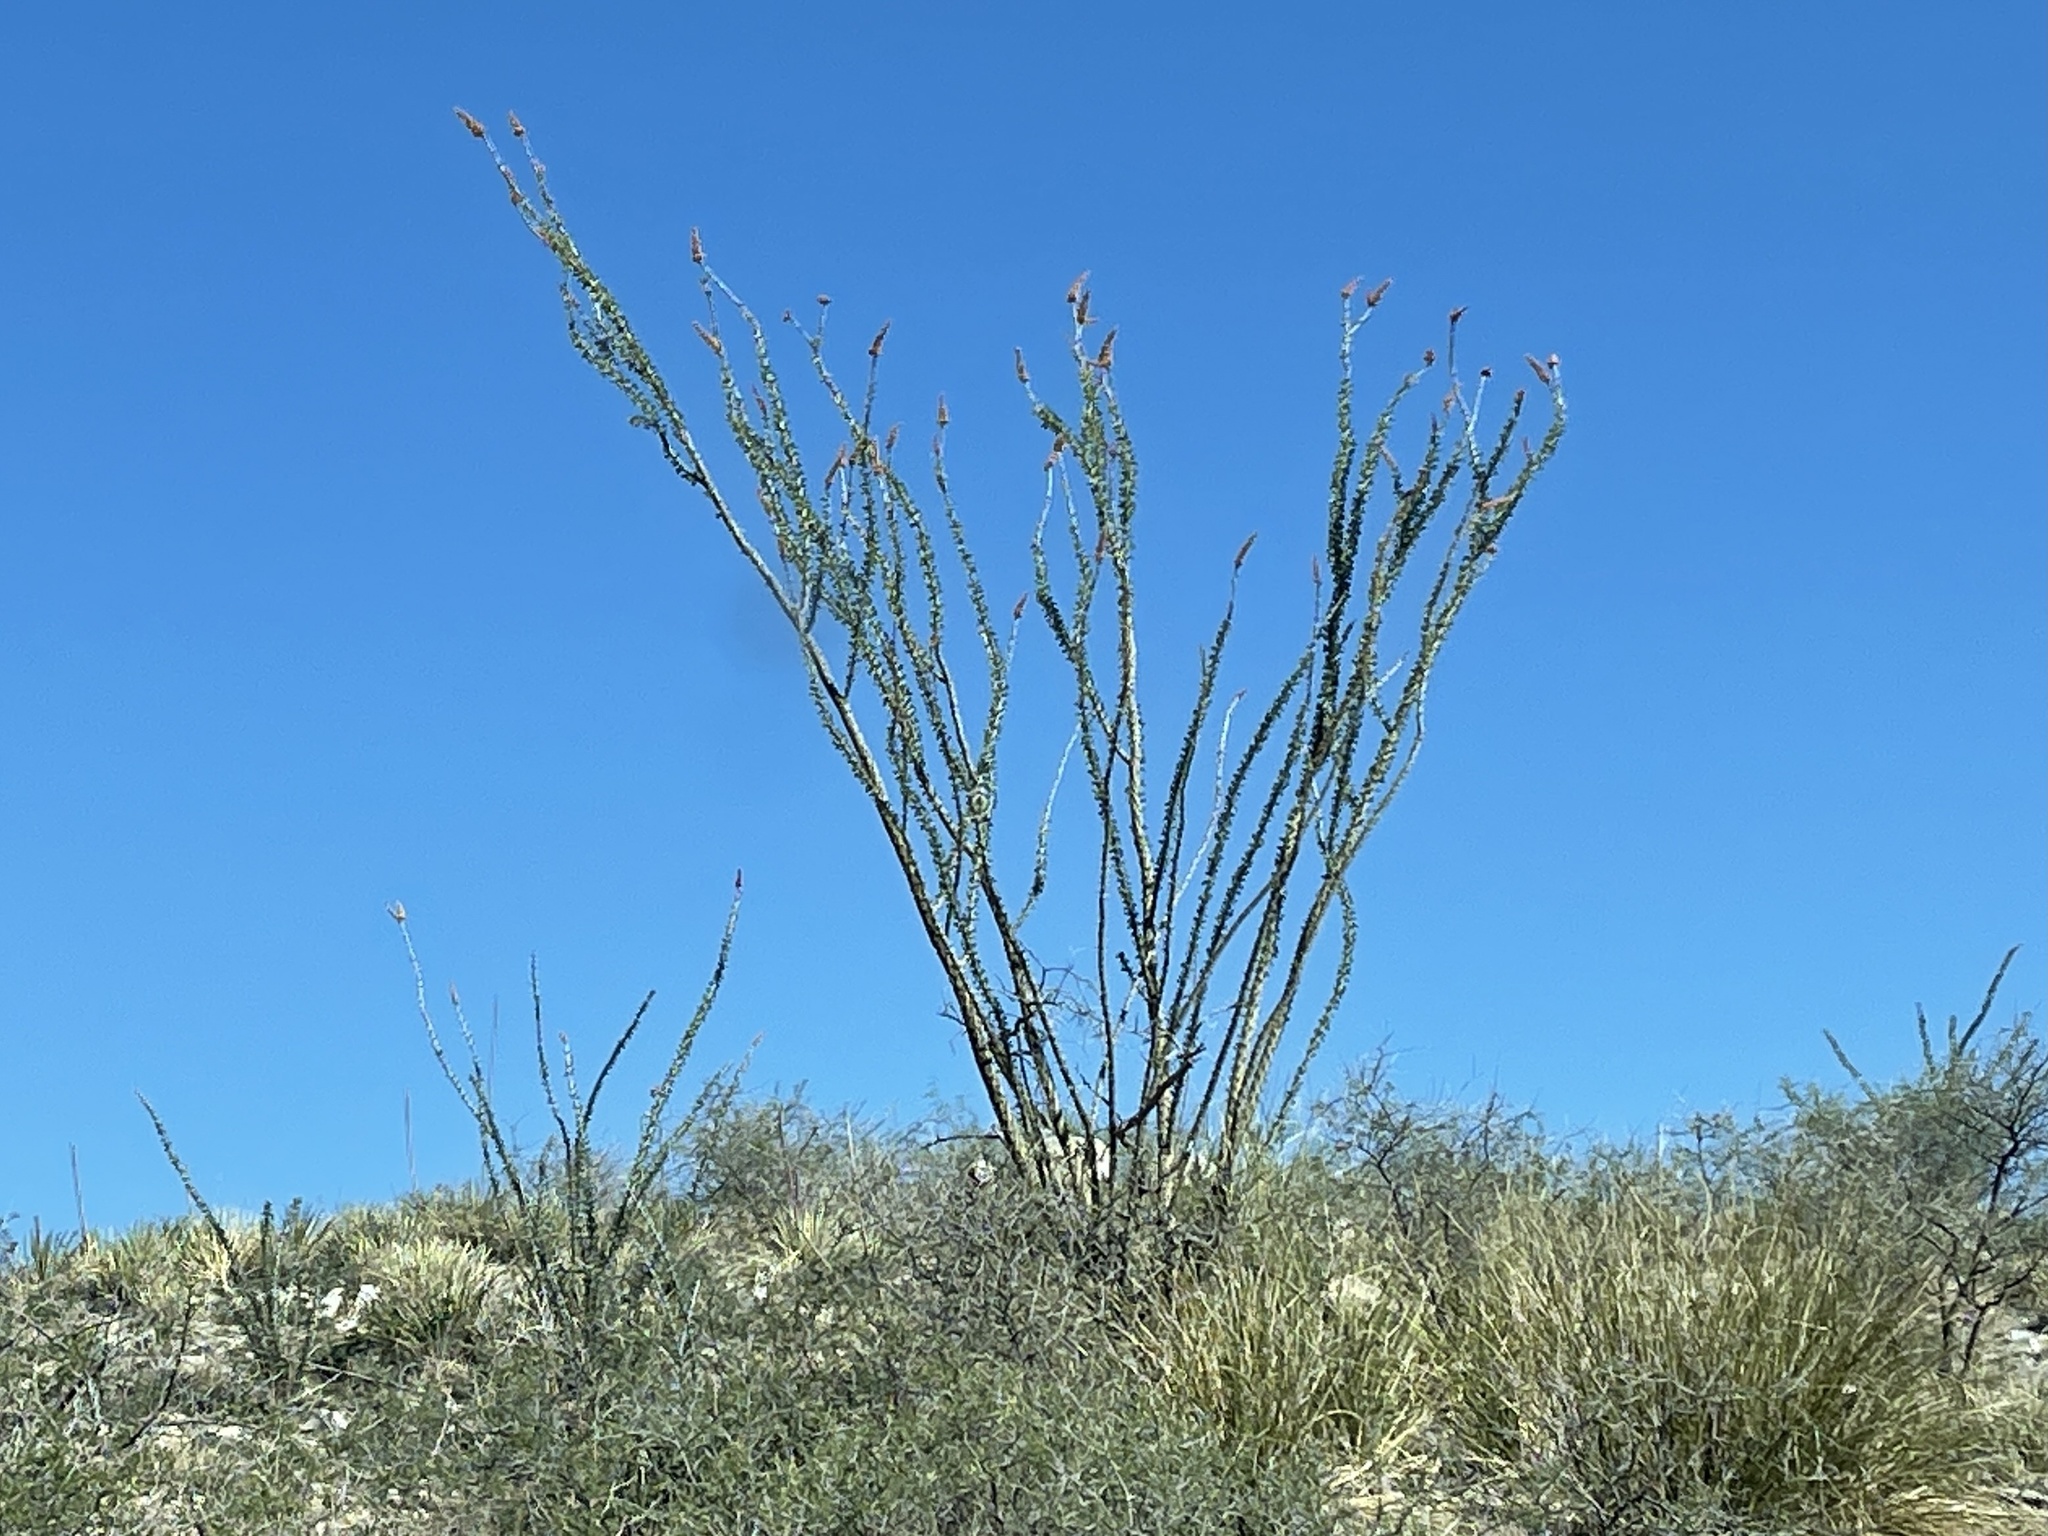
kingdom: Plantae
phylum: Tracheophyta
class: Magnoliopsida
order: Ericales
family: Fouquieriaceae
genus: Fouquieria
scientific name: Fouquieria splendens
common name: Vine-cactus
